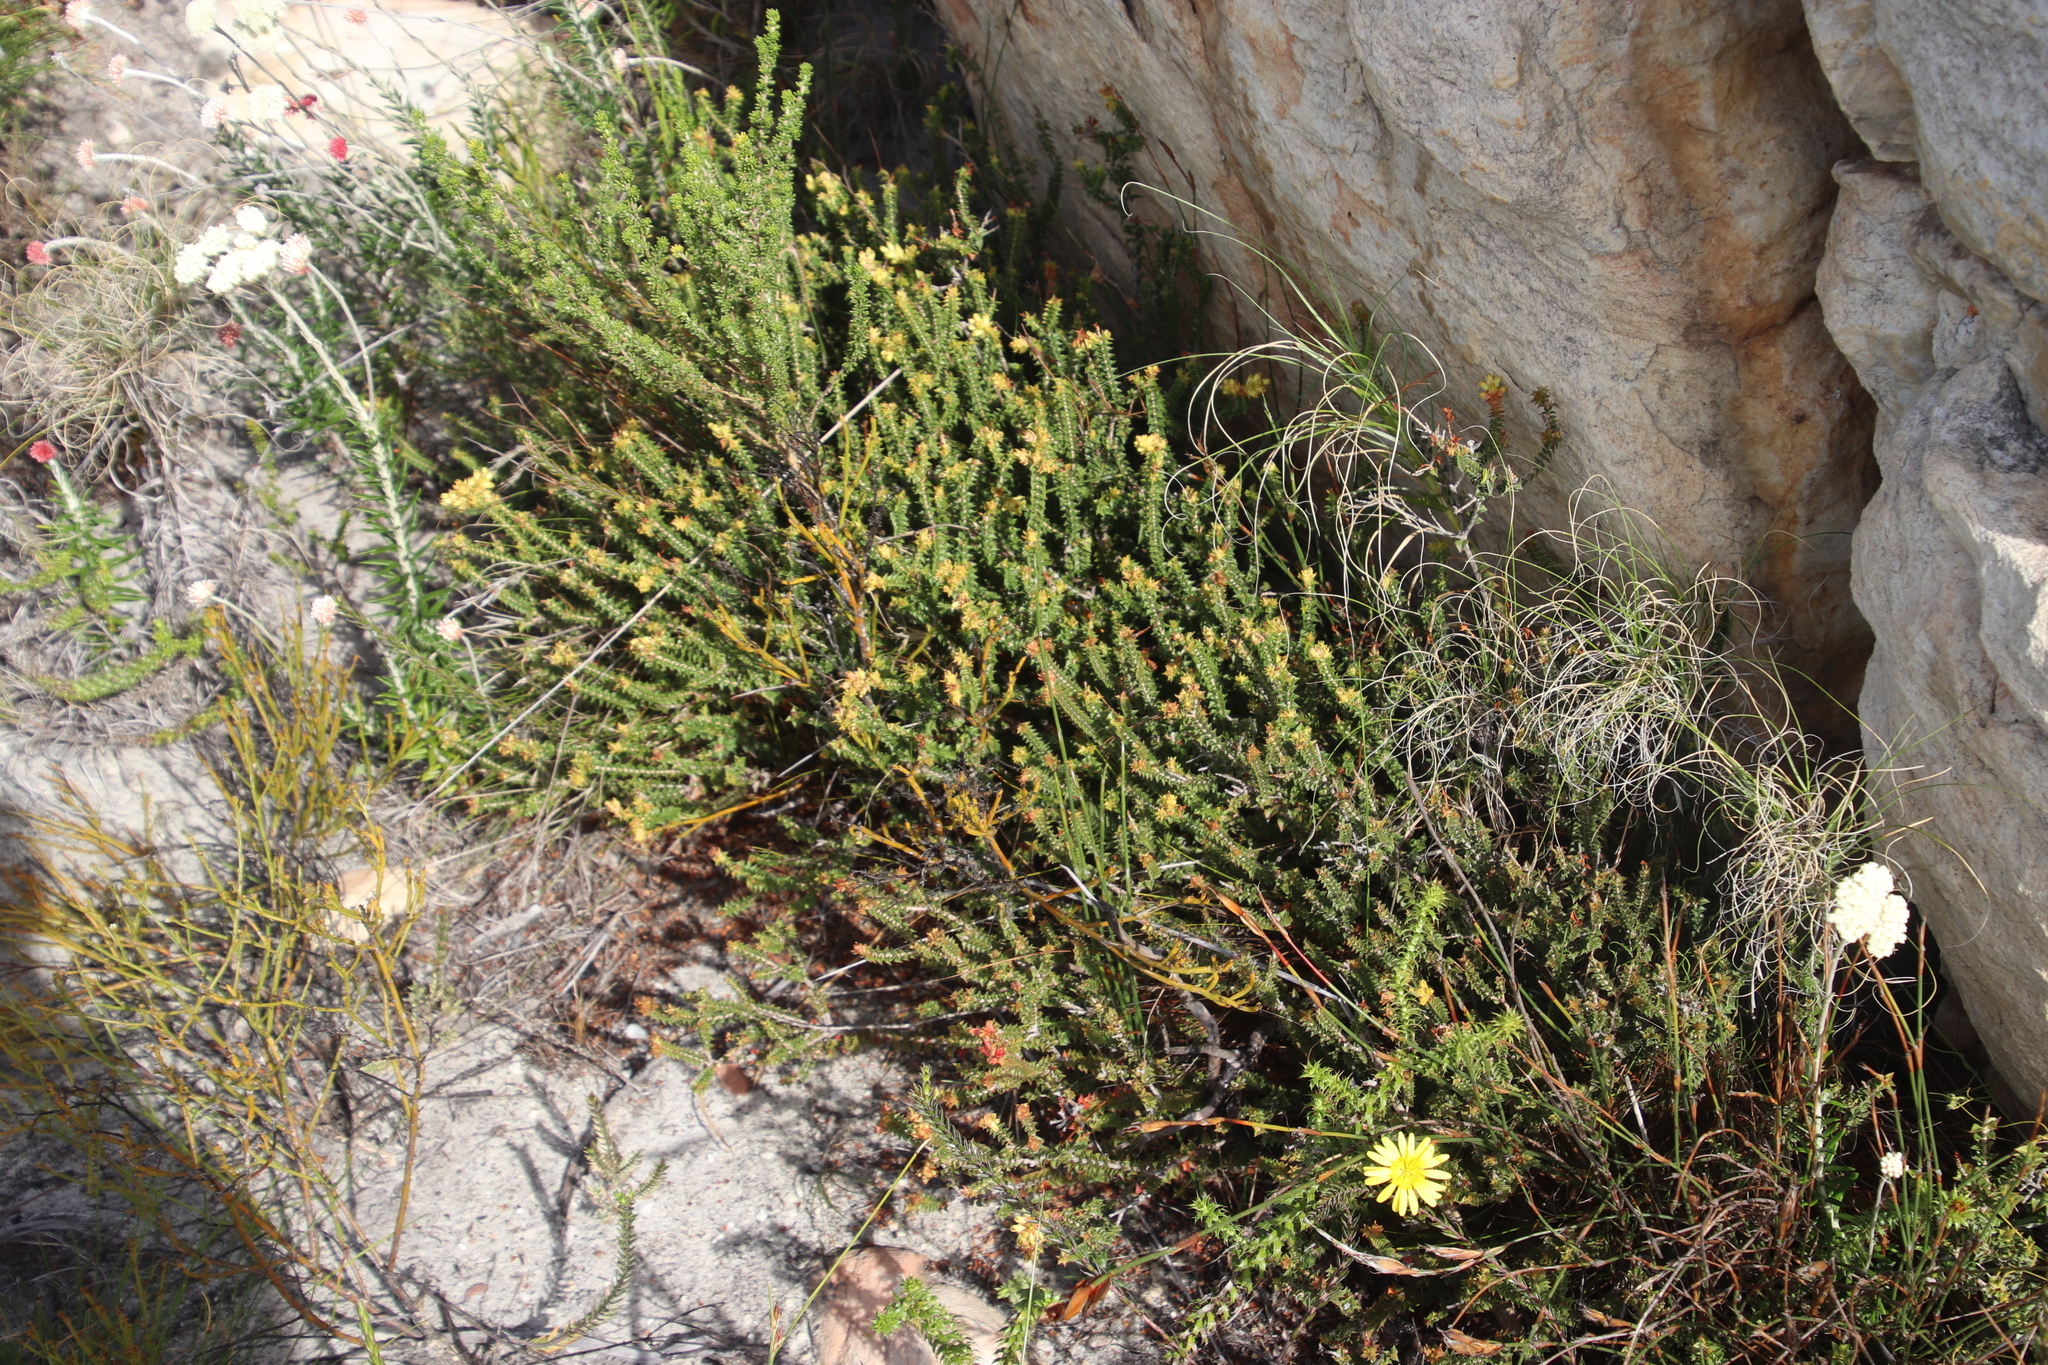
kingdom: Plantae
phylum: Tracheophyta
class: Magnoliopsida
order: Myrtales
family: Penaeaceae
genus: Penaea
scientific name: Penaea mucronata
